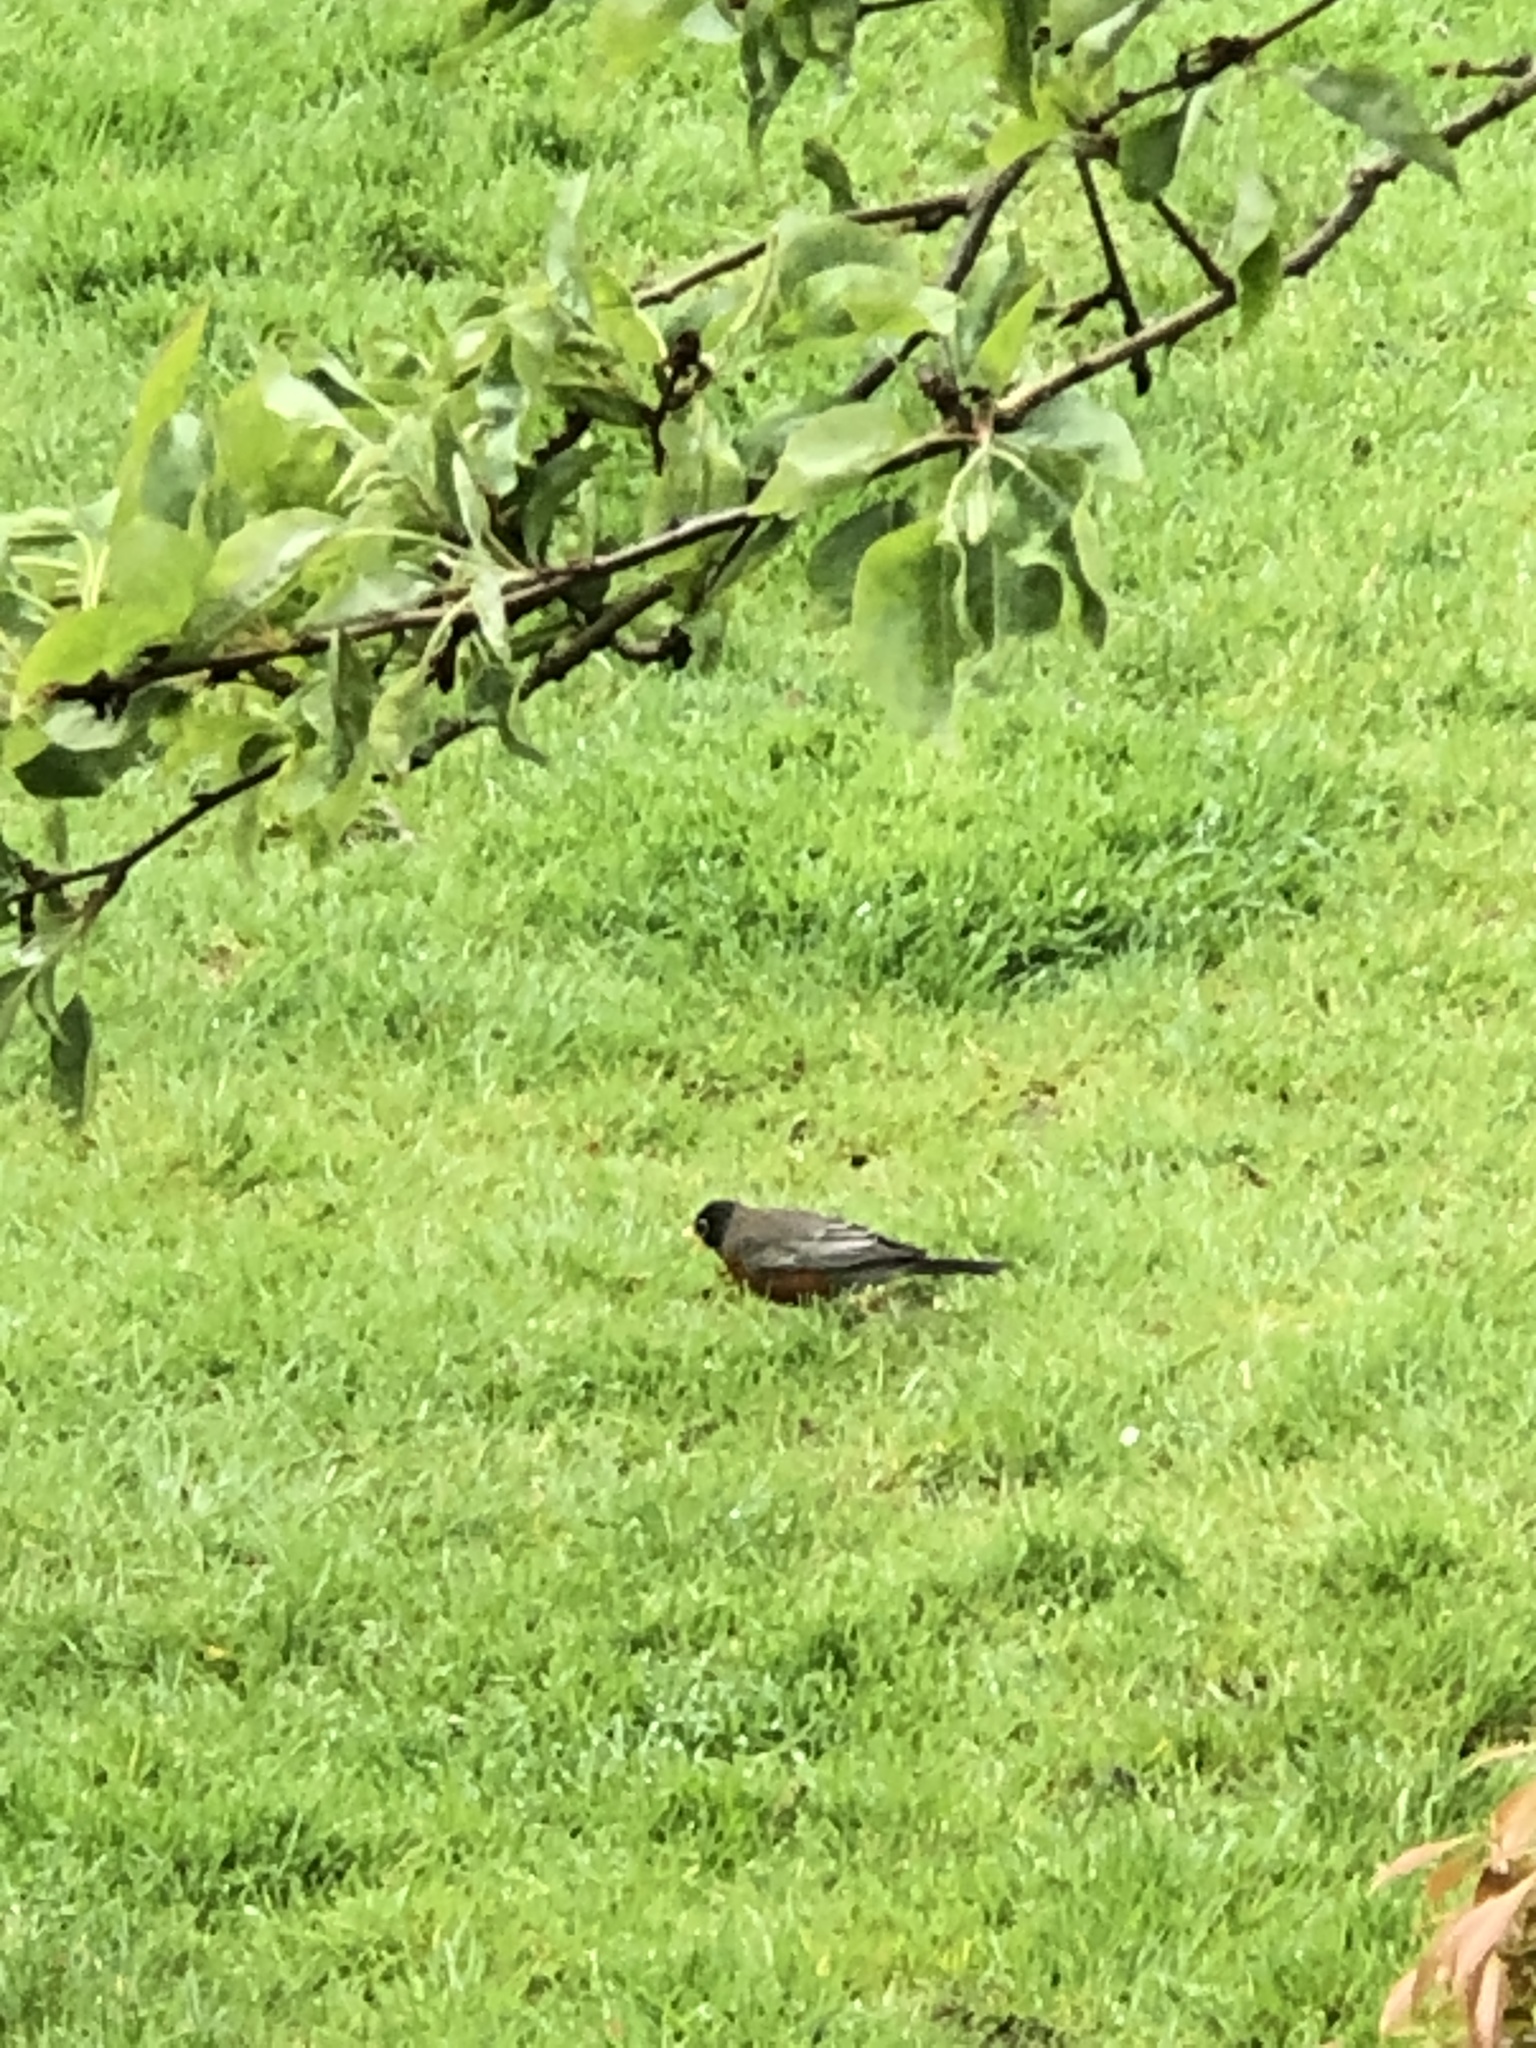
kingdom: Animalia
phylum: Chordata
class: Aves
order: Passeriformes
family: Turdidae
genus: Turdus
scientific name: Turdus migratorius
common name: American robin
